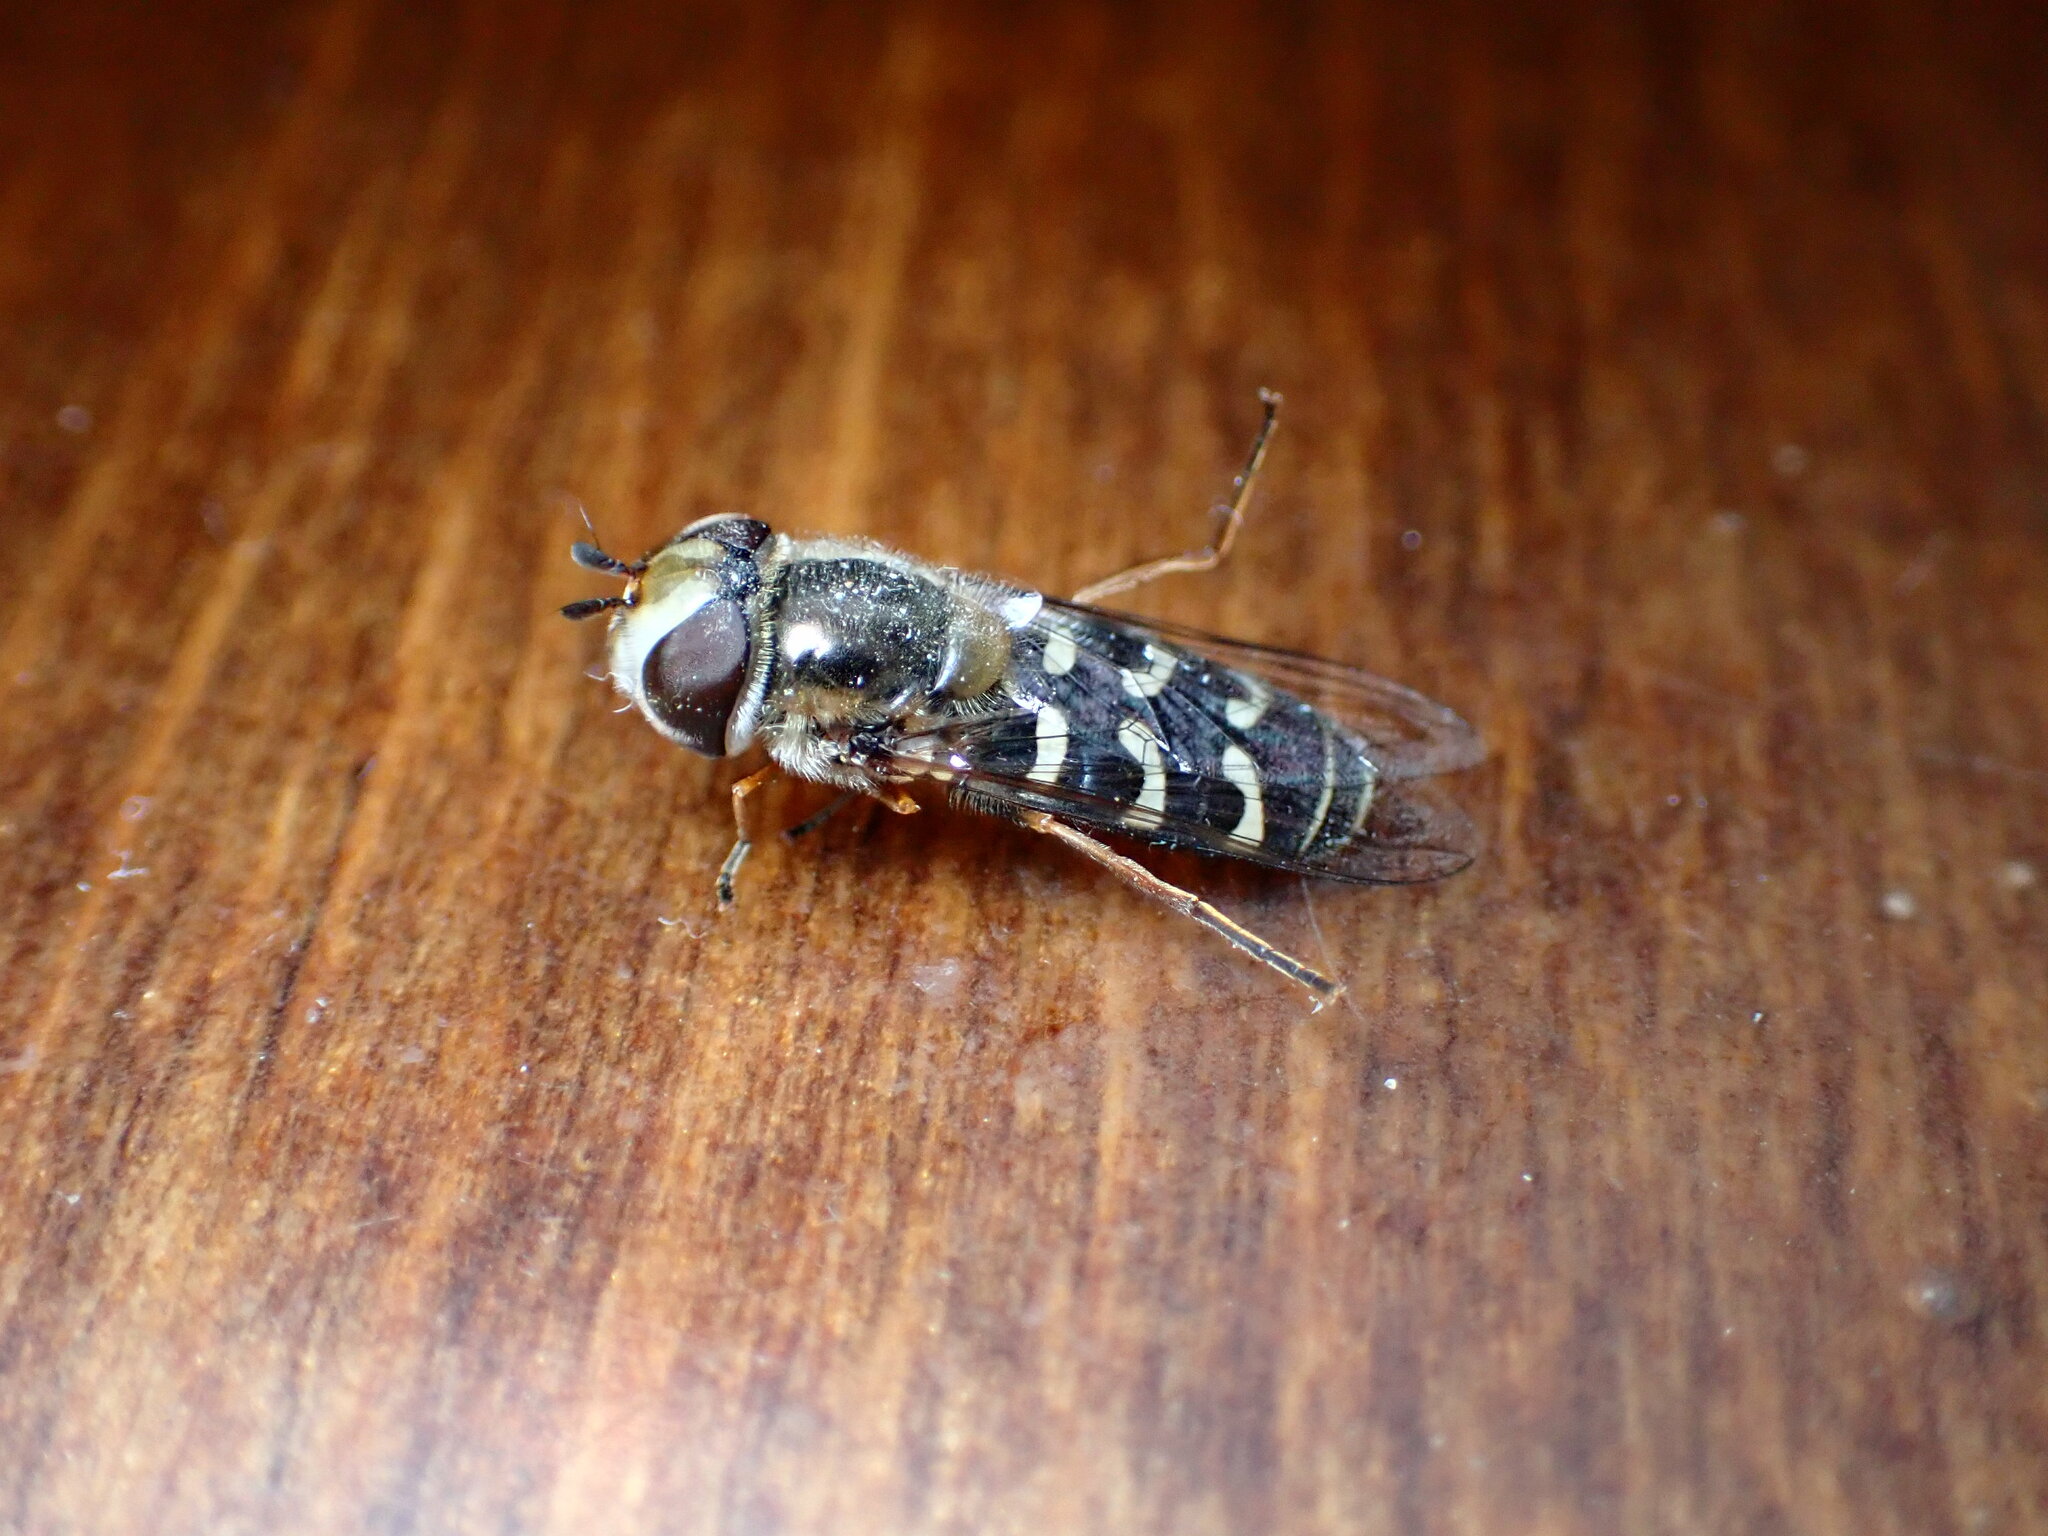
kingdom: Animalia
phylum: Arthropoda
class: Insecta
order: Diptera
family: Syrphidae
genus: Scaeva
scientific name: Scaeva affinis
